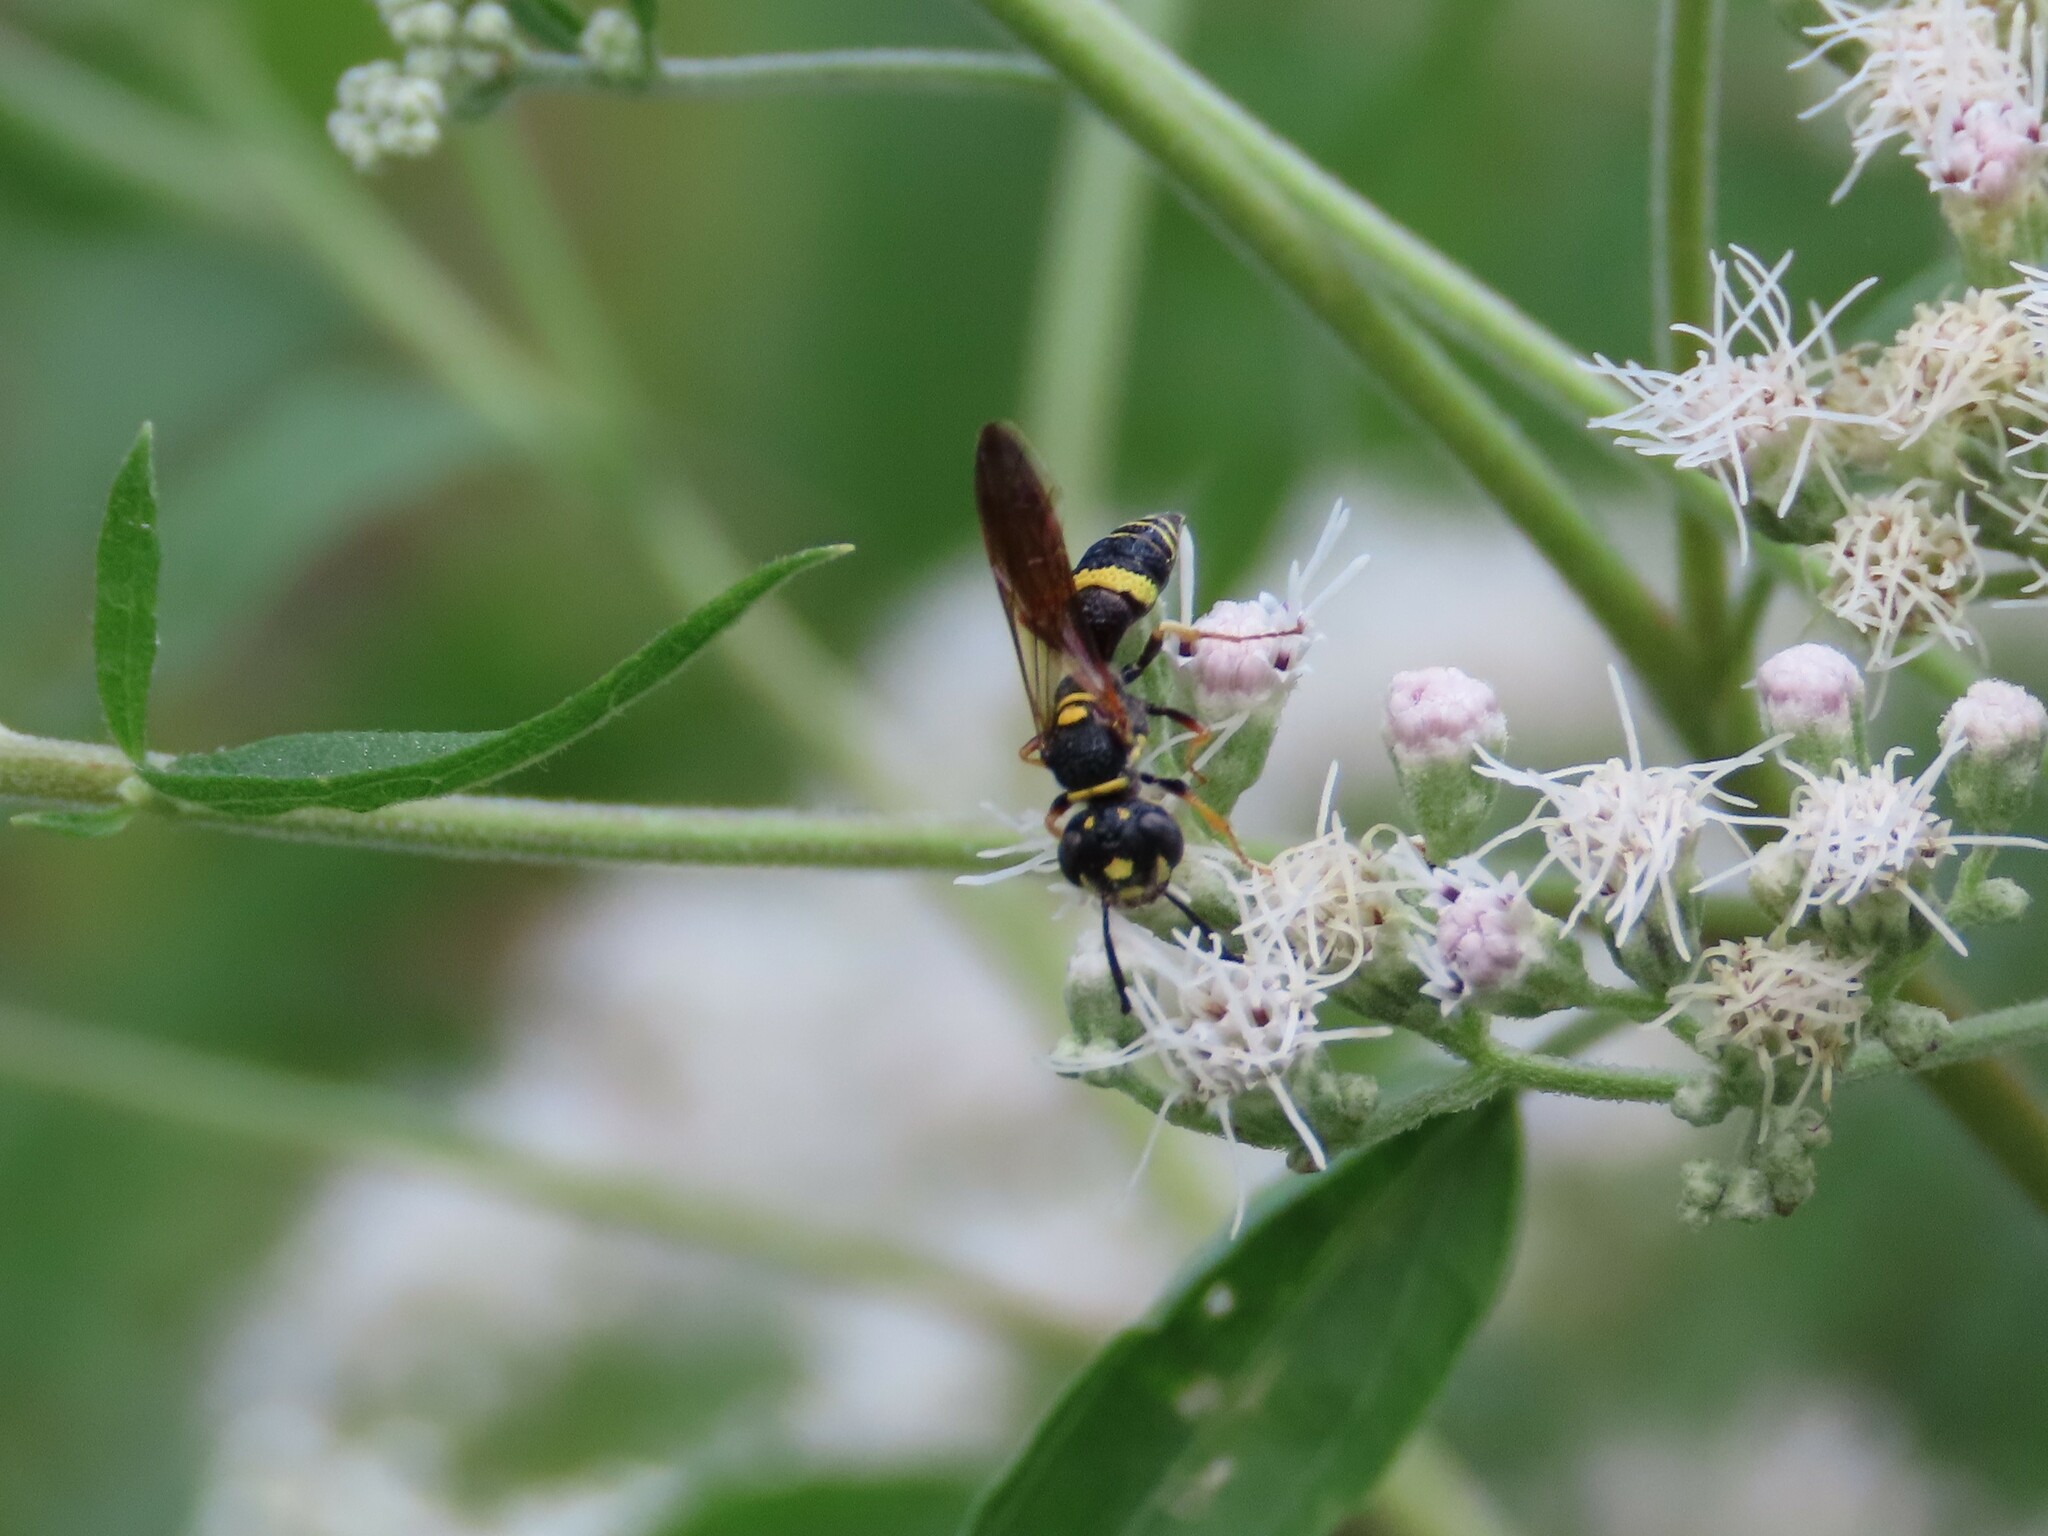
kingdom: Animalia
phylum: Arthropoda
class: Insecta
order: Hymenoptera
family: Crabronidae
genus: Philanthus
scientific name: Philanthus gibbosus
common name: Humped beewolf
